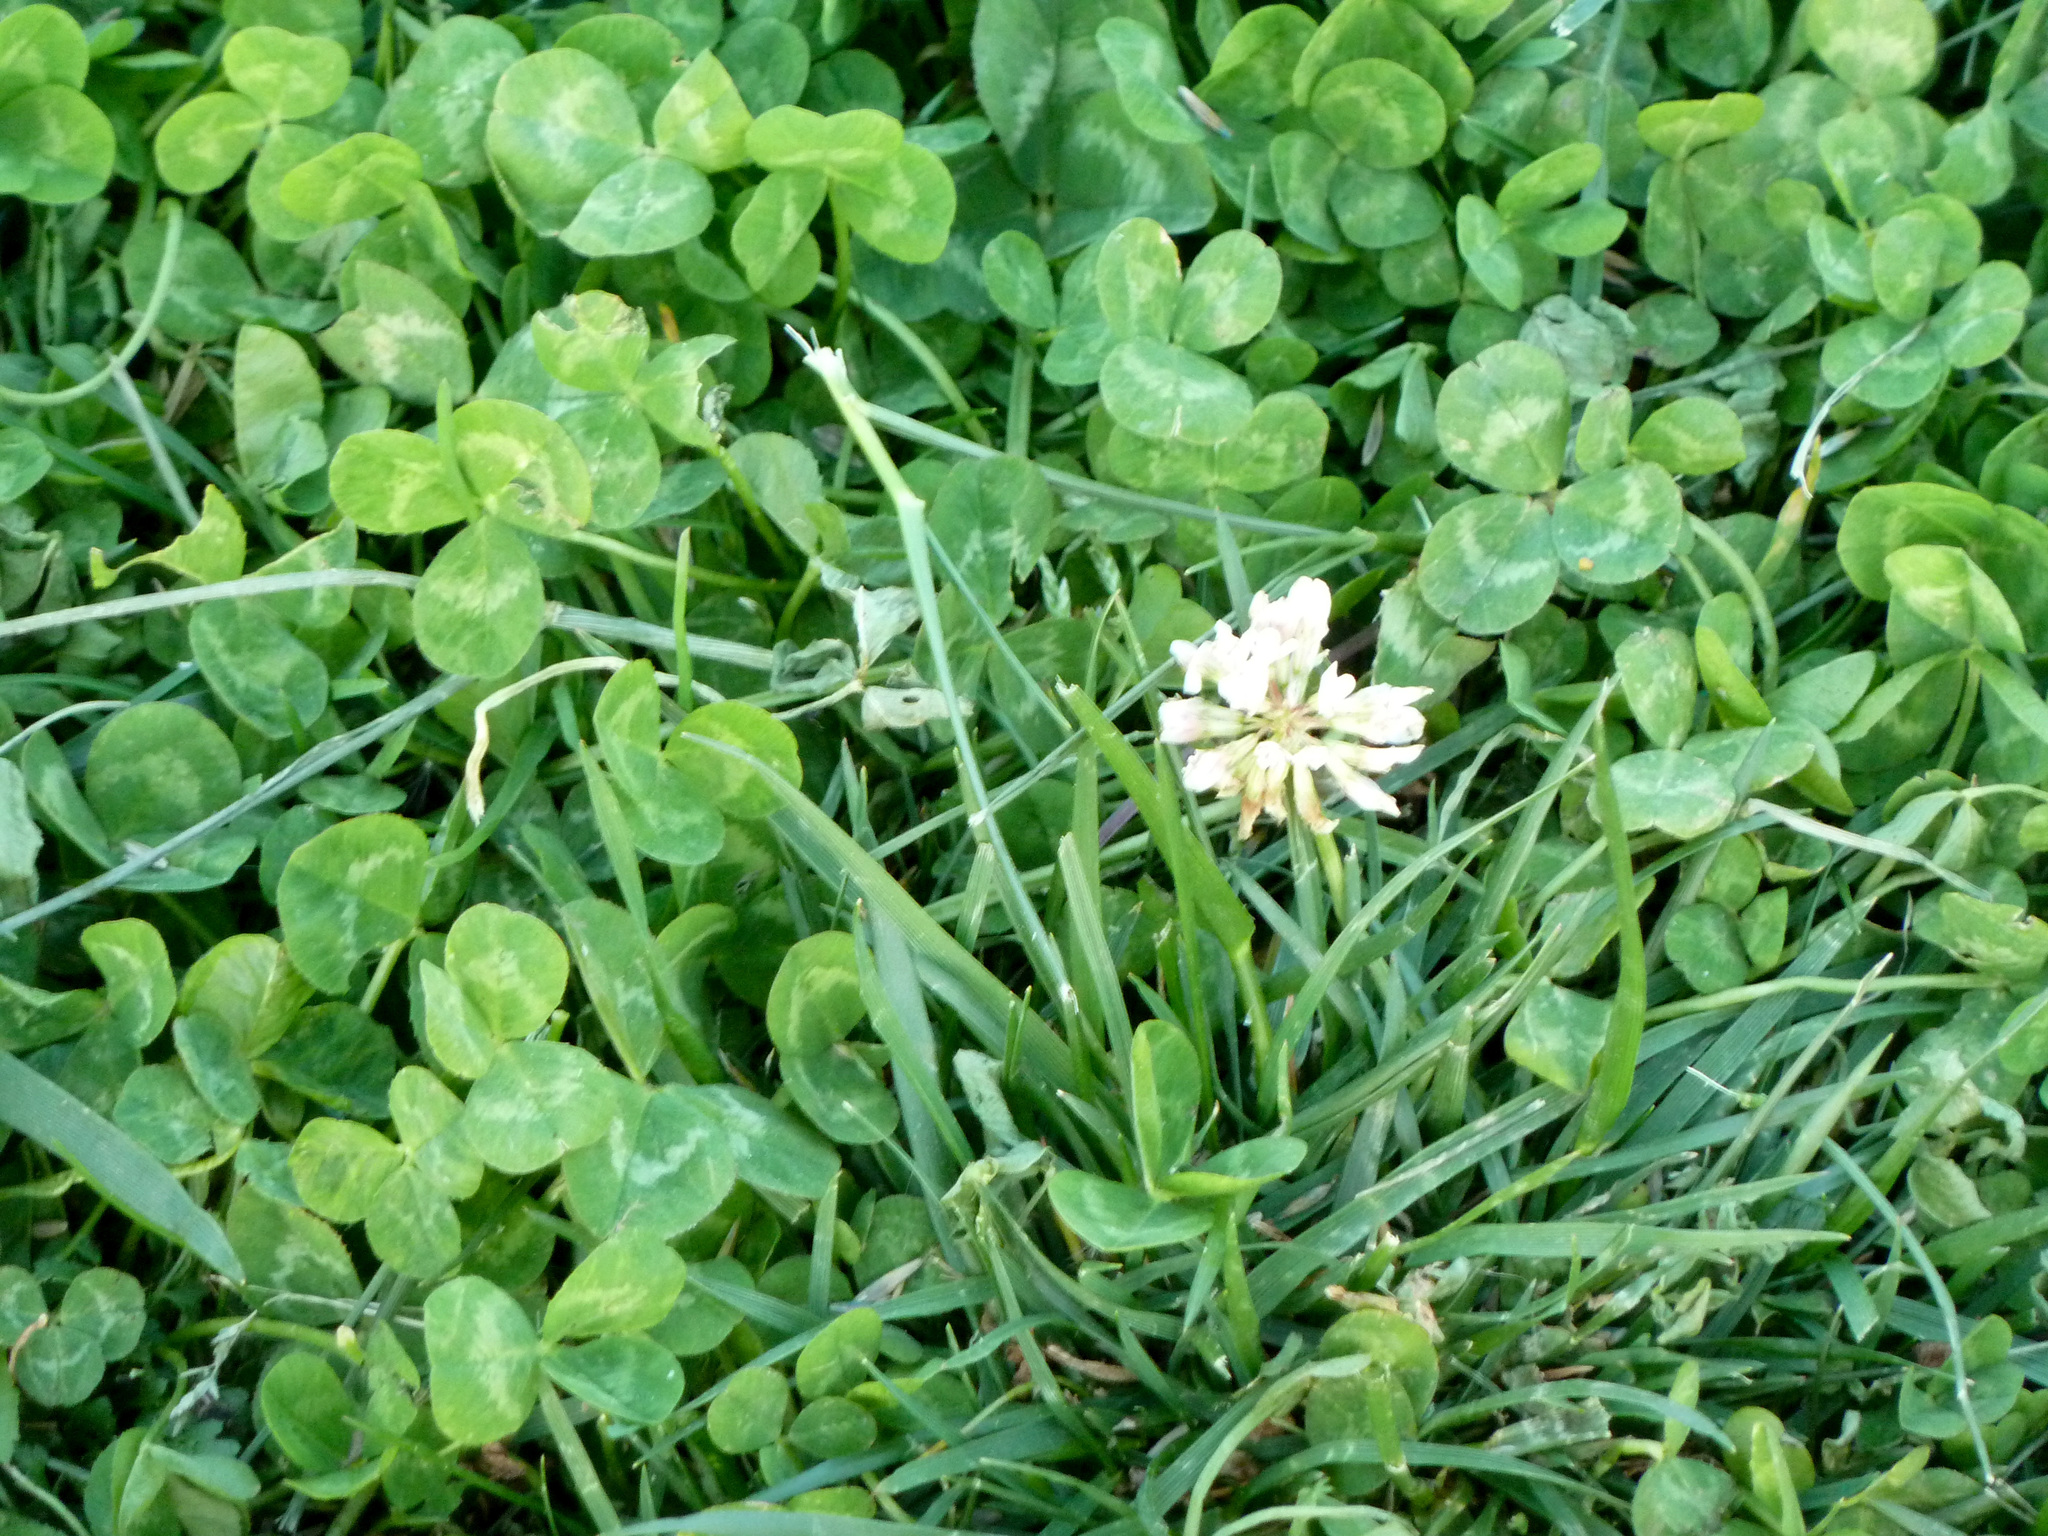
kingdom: Plantae
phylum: Tracheophyta
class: Magnoliopsida
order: Fabales
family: Fabaceae
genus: Trifolium
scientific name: Trifolium repens
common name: White clover
